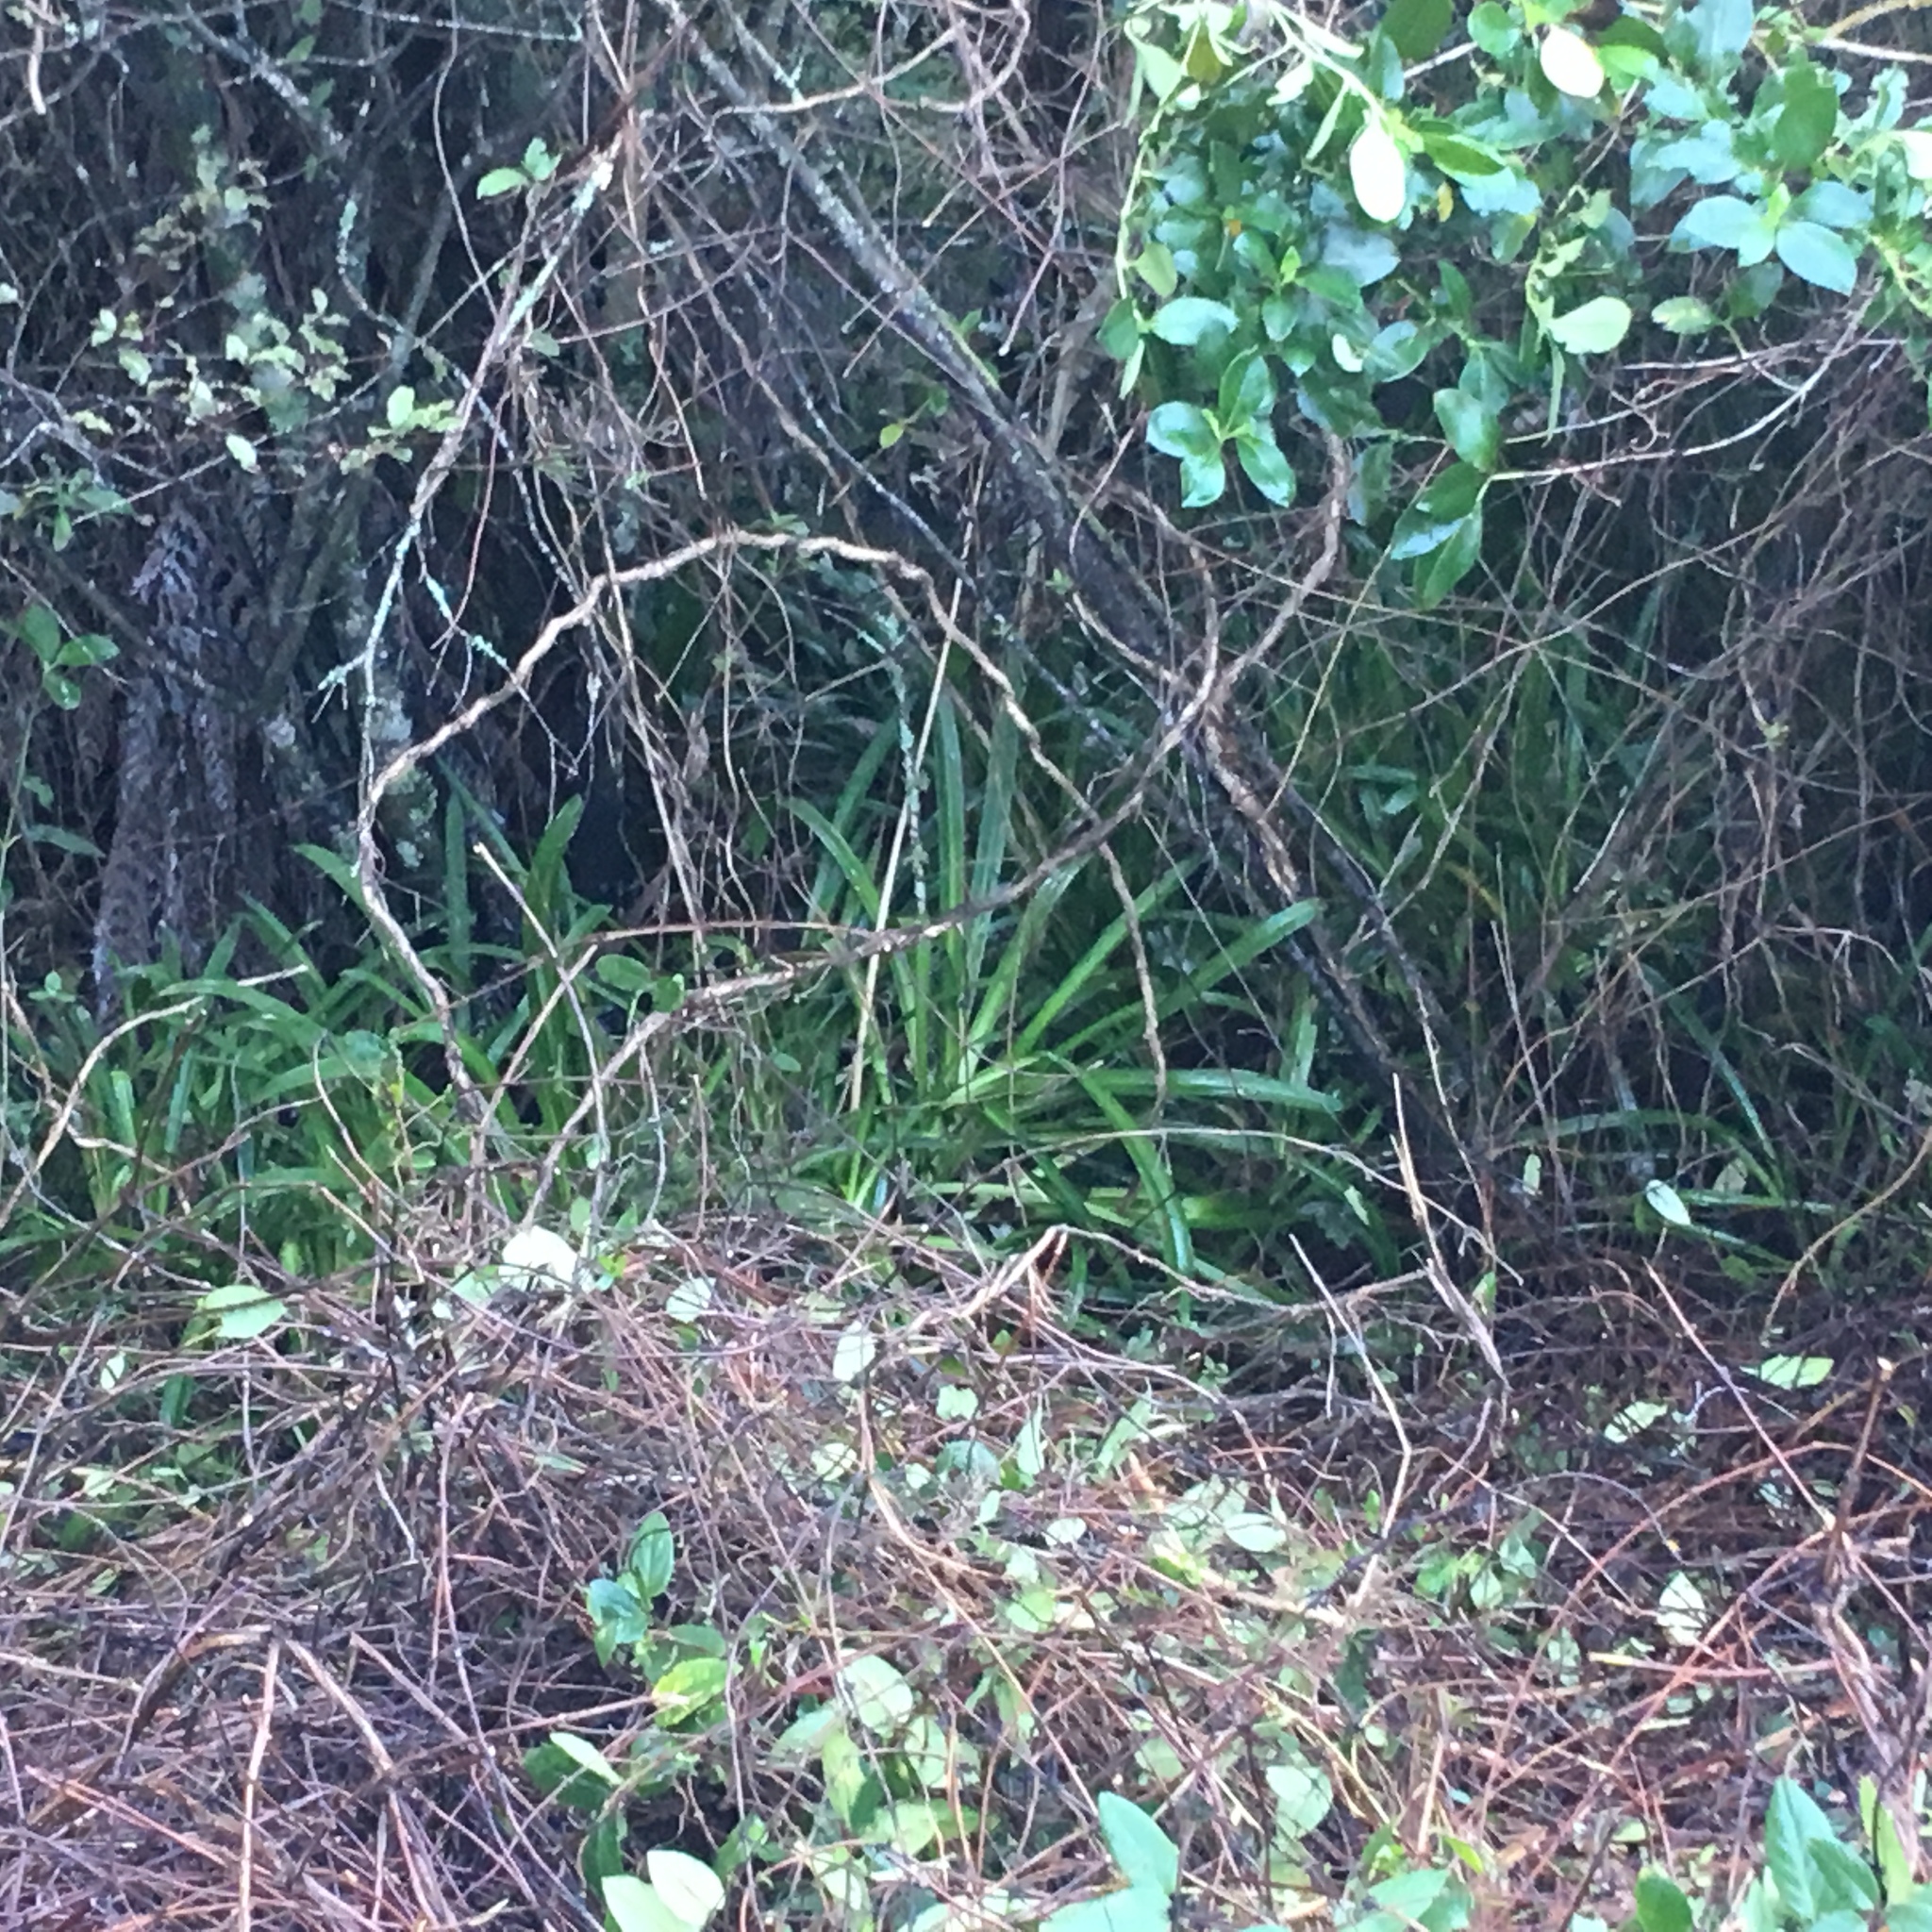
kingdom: Plantae
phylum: Tracheophyta
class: Liliopsida
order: Asparagales
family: Amaryllidaceae
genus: Agapanthus
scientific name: Agapanthus praecox
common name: African-lily
